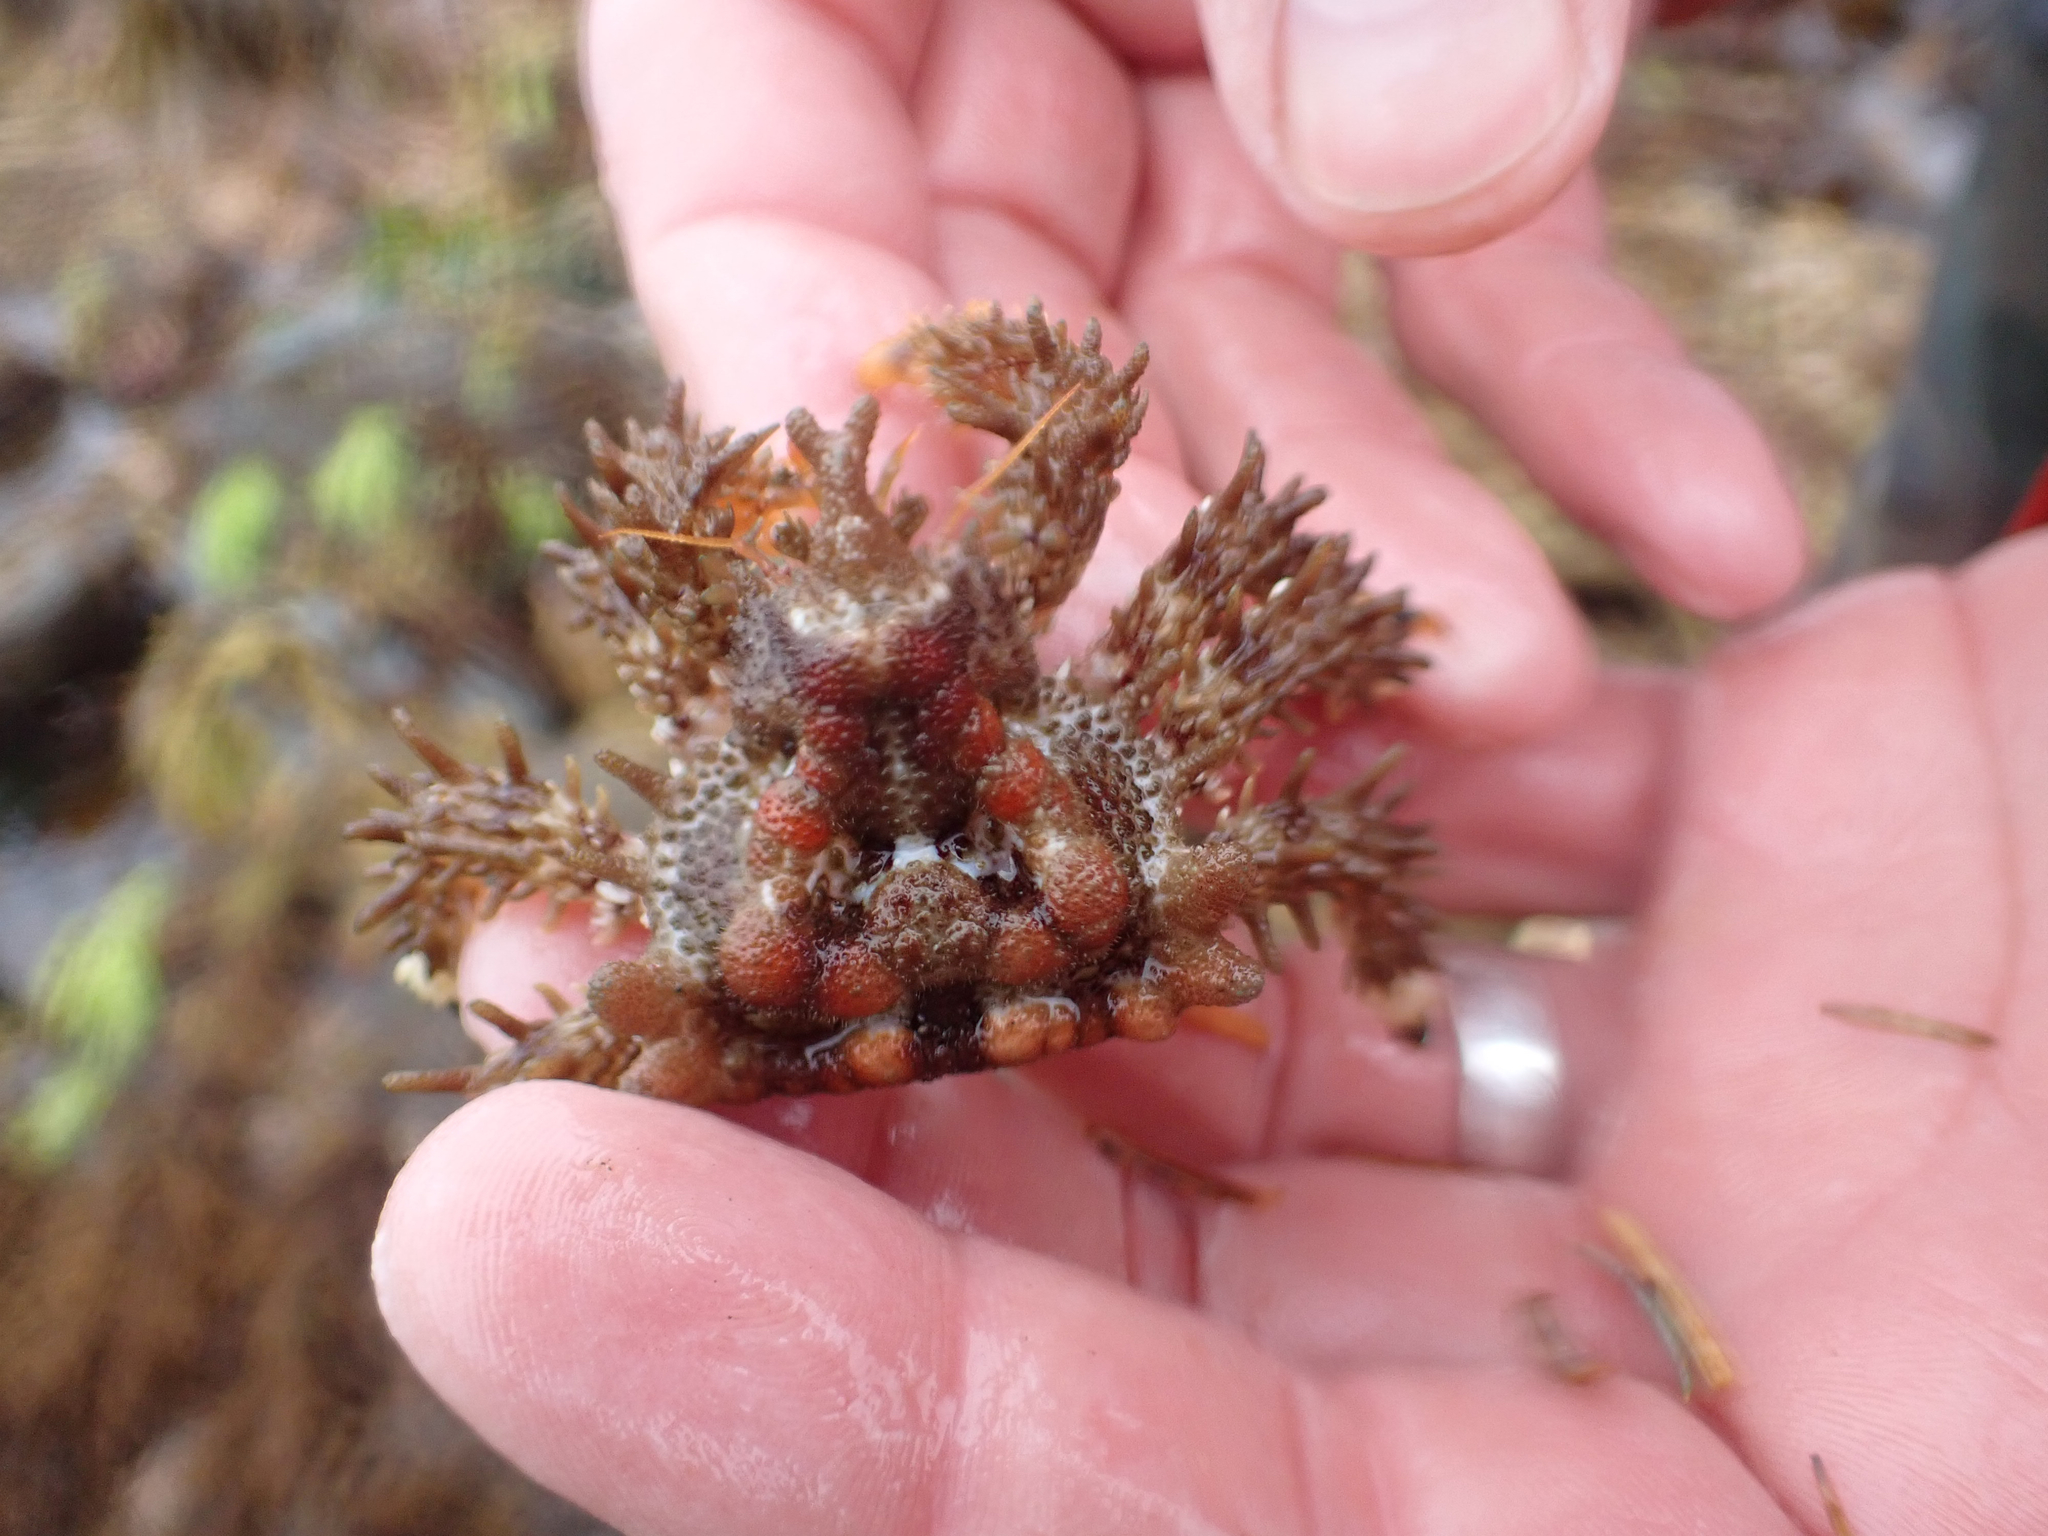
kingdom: Animalia
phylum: Arthropoda
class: Malacostraca
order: Decapoda
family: Lithodidae
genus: Phyllolithodes
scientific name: Phyllolithodes papillosus
